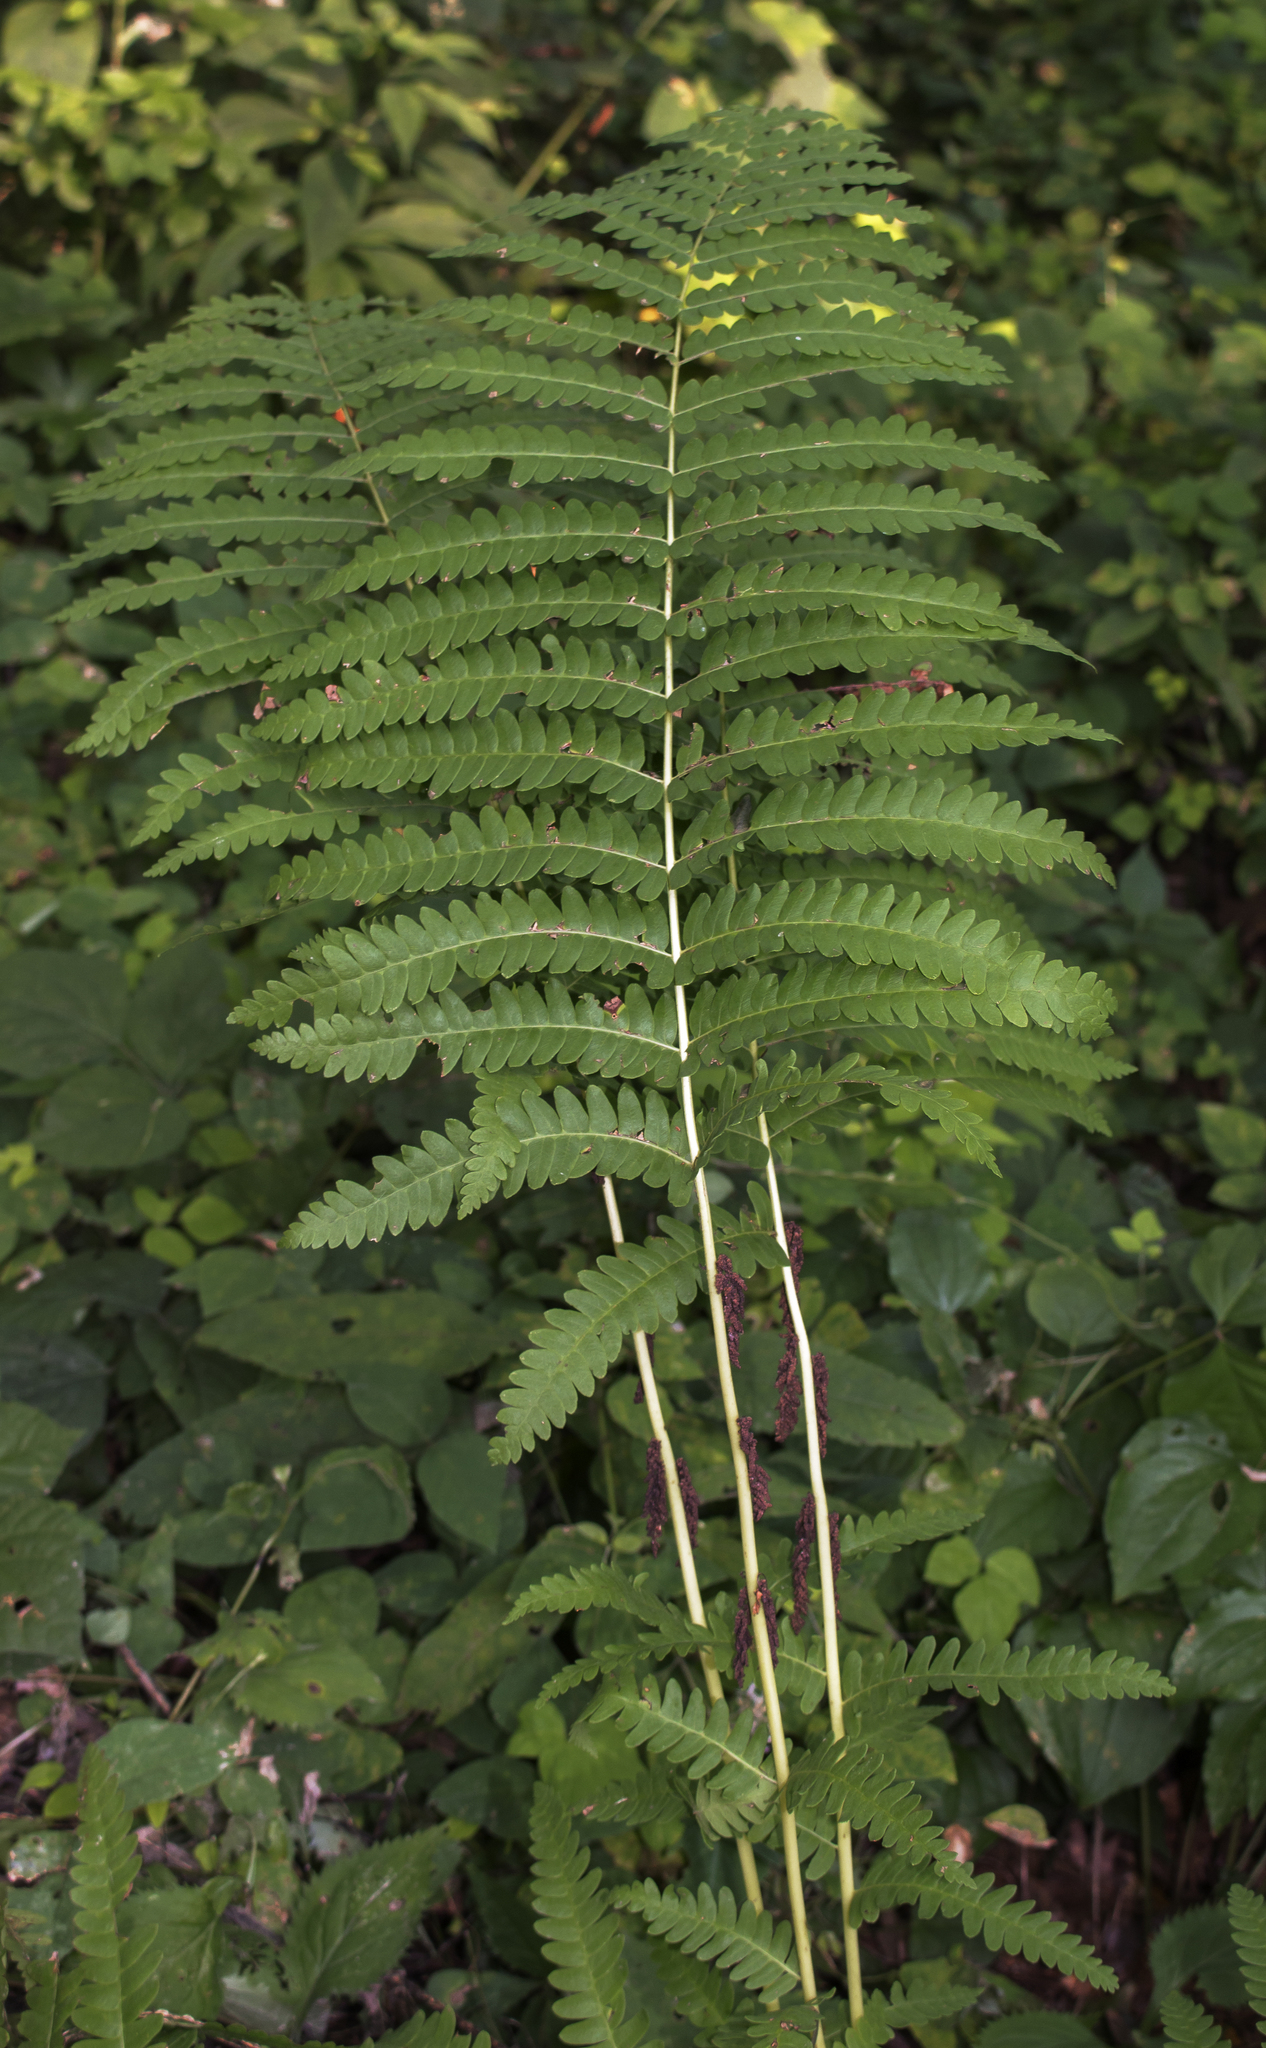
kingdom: Plantae
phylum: Tracheophyta
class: Polypodiopsida
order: Osmundales
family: Osmundaceae
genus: Claytosmunda
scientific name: Claytosmunda claytoniana
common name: Clayton's fern
